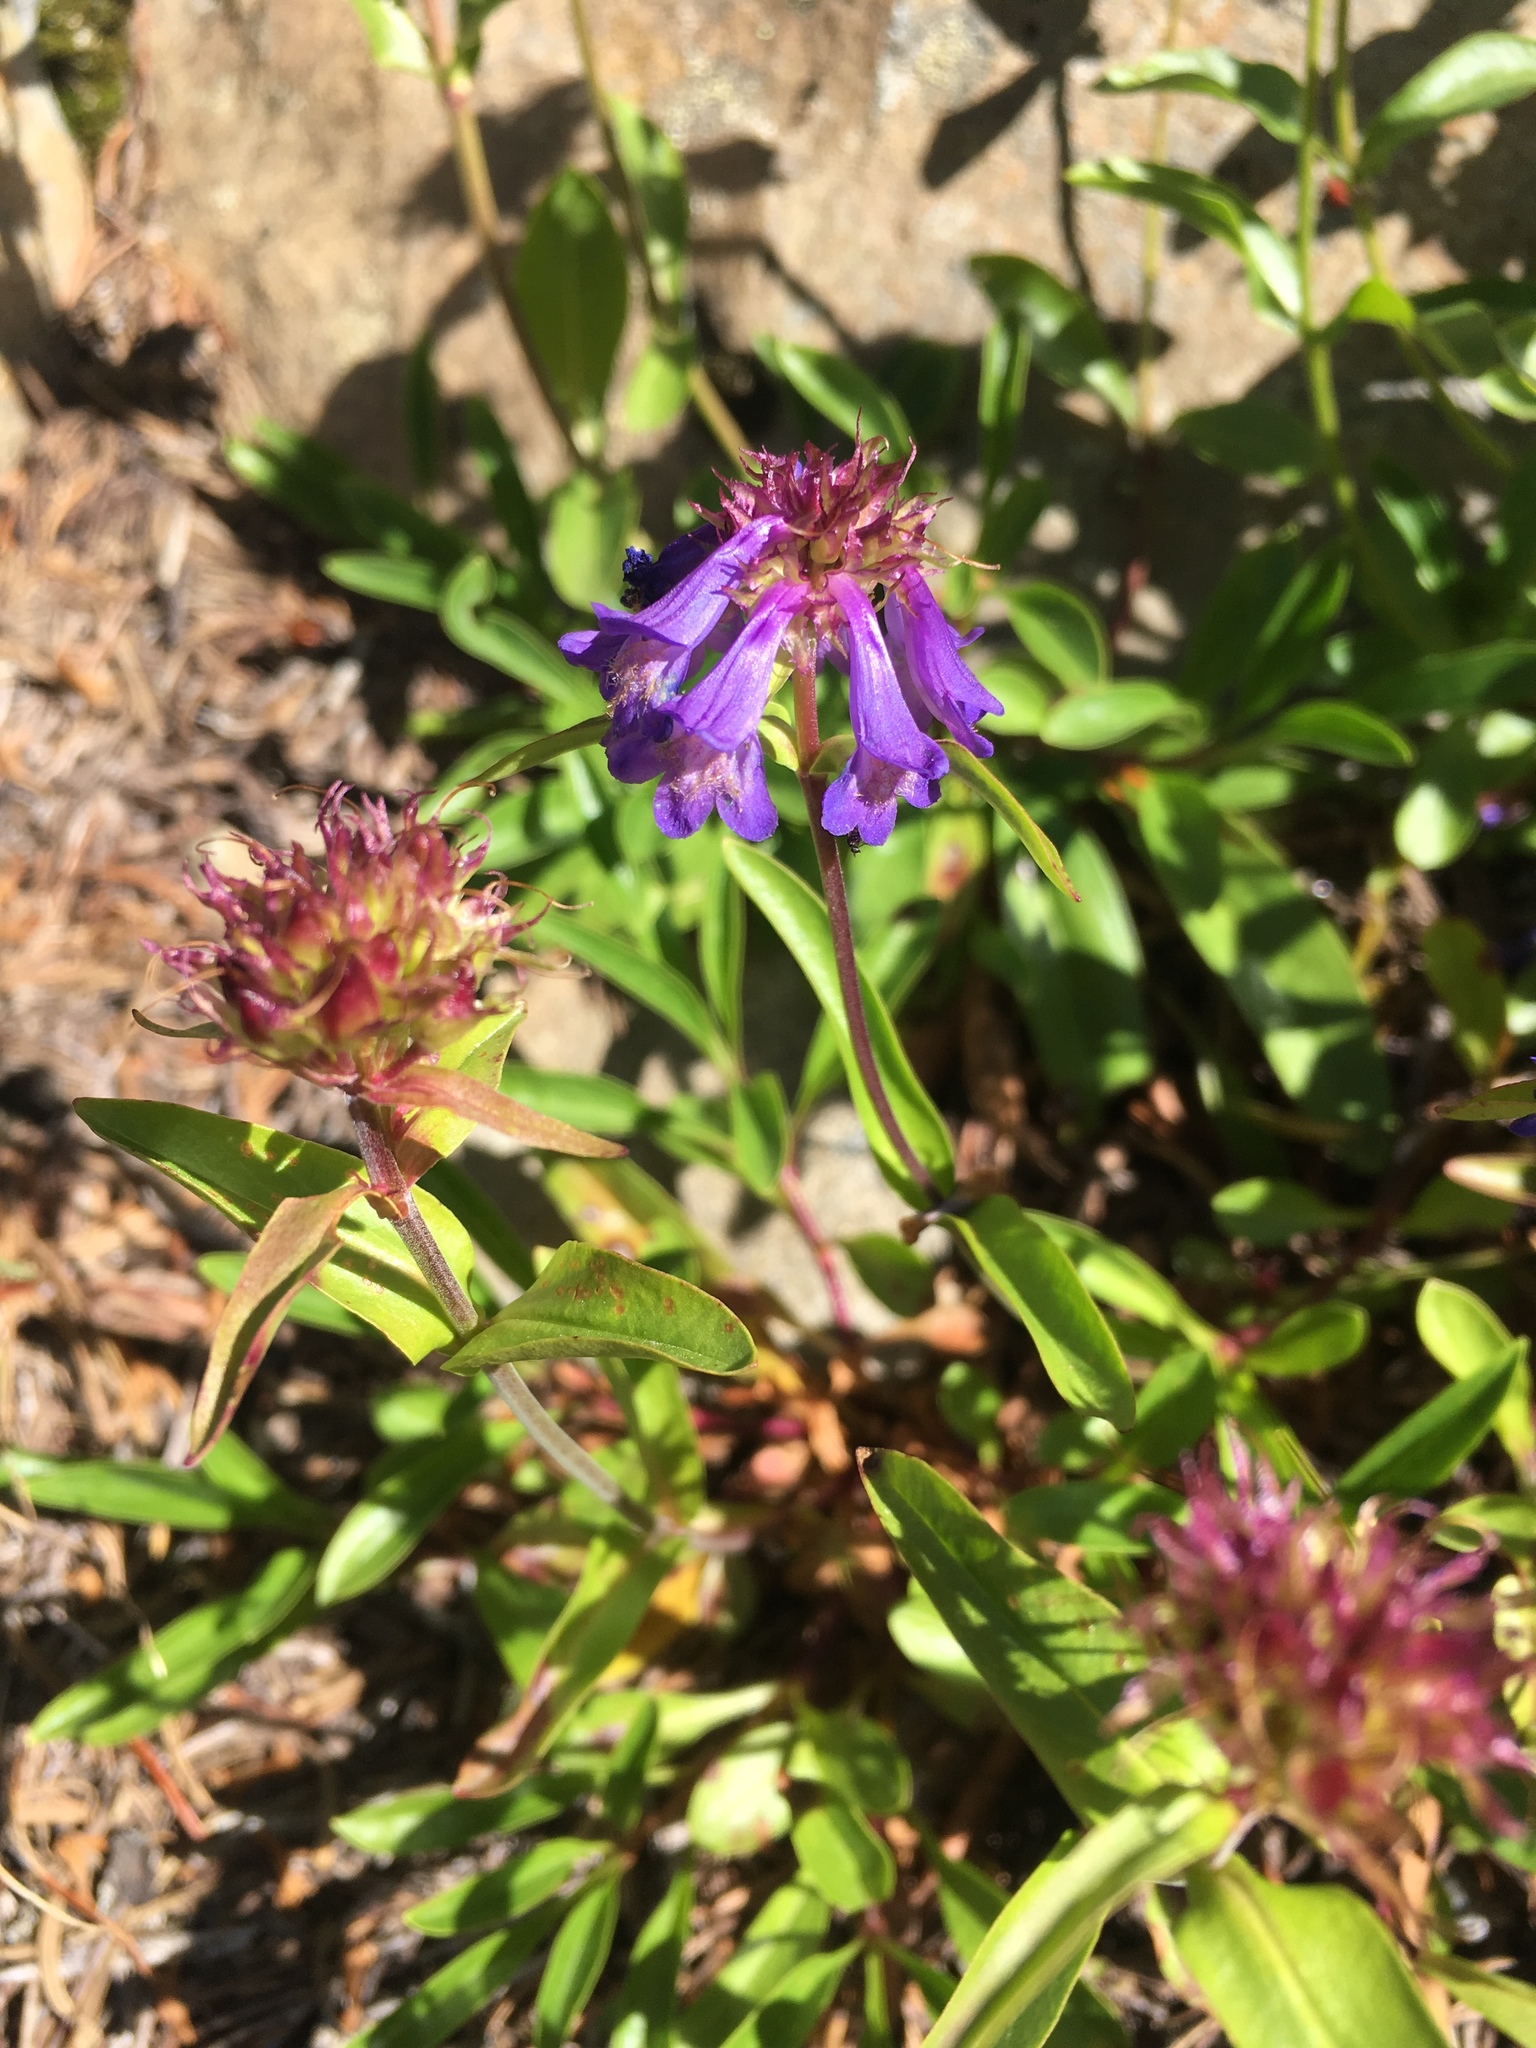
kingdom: Plantae
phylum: Tracheophyta
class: Magnoliopsida
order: Lamiales
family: Plantaginaceae
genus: Penstemon
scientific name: Penstemon procerus
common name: Small-flower penstemon
